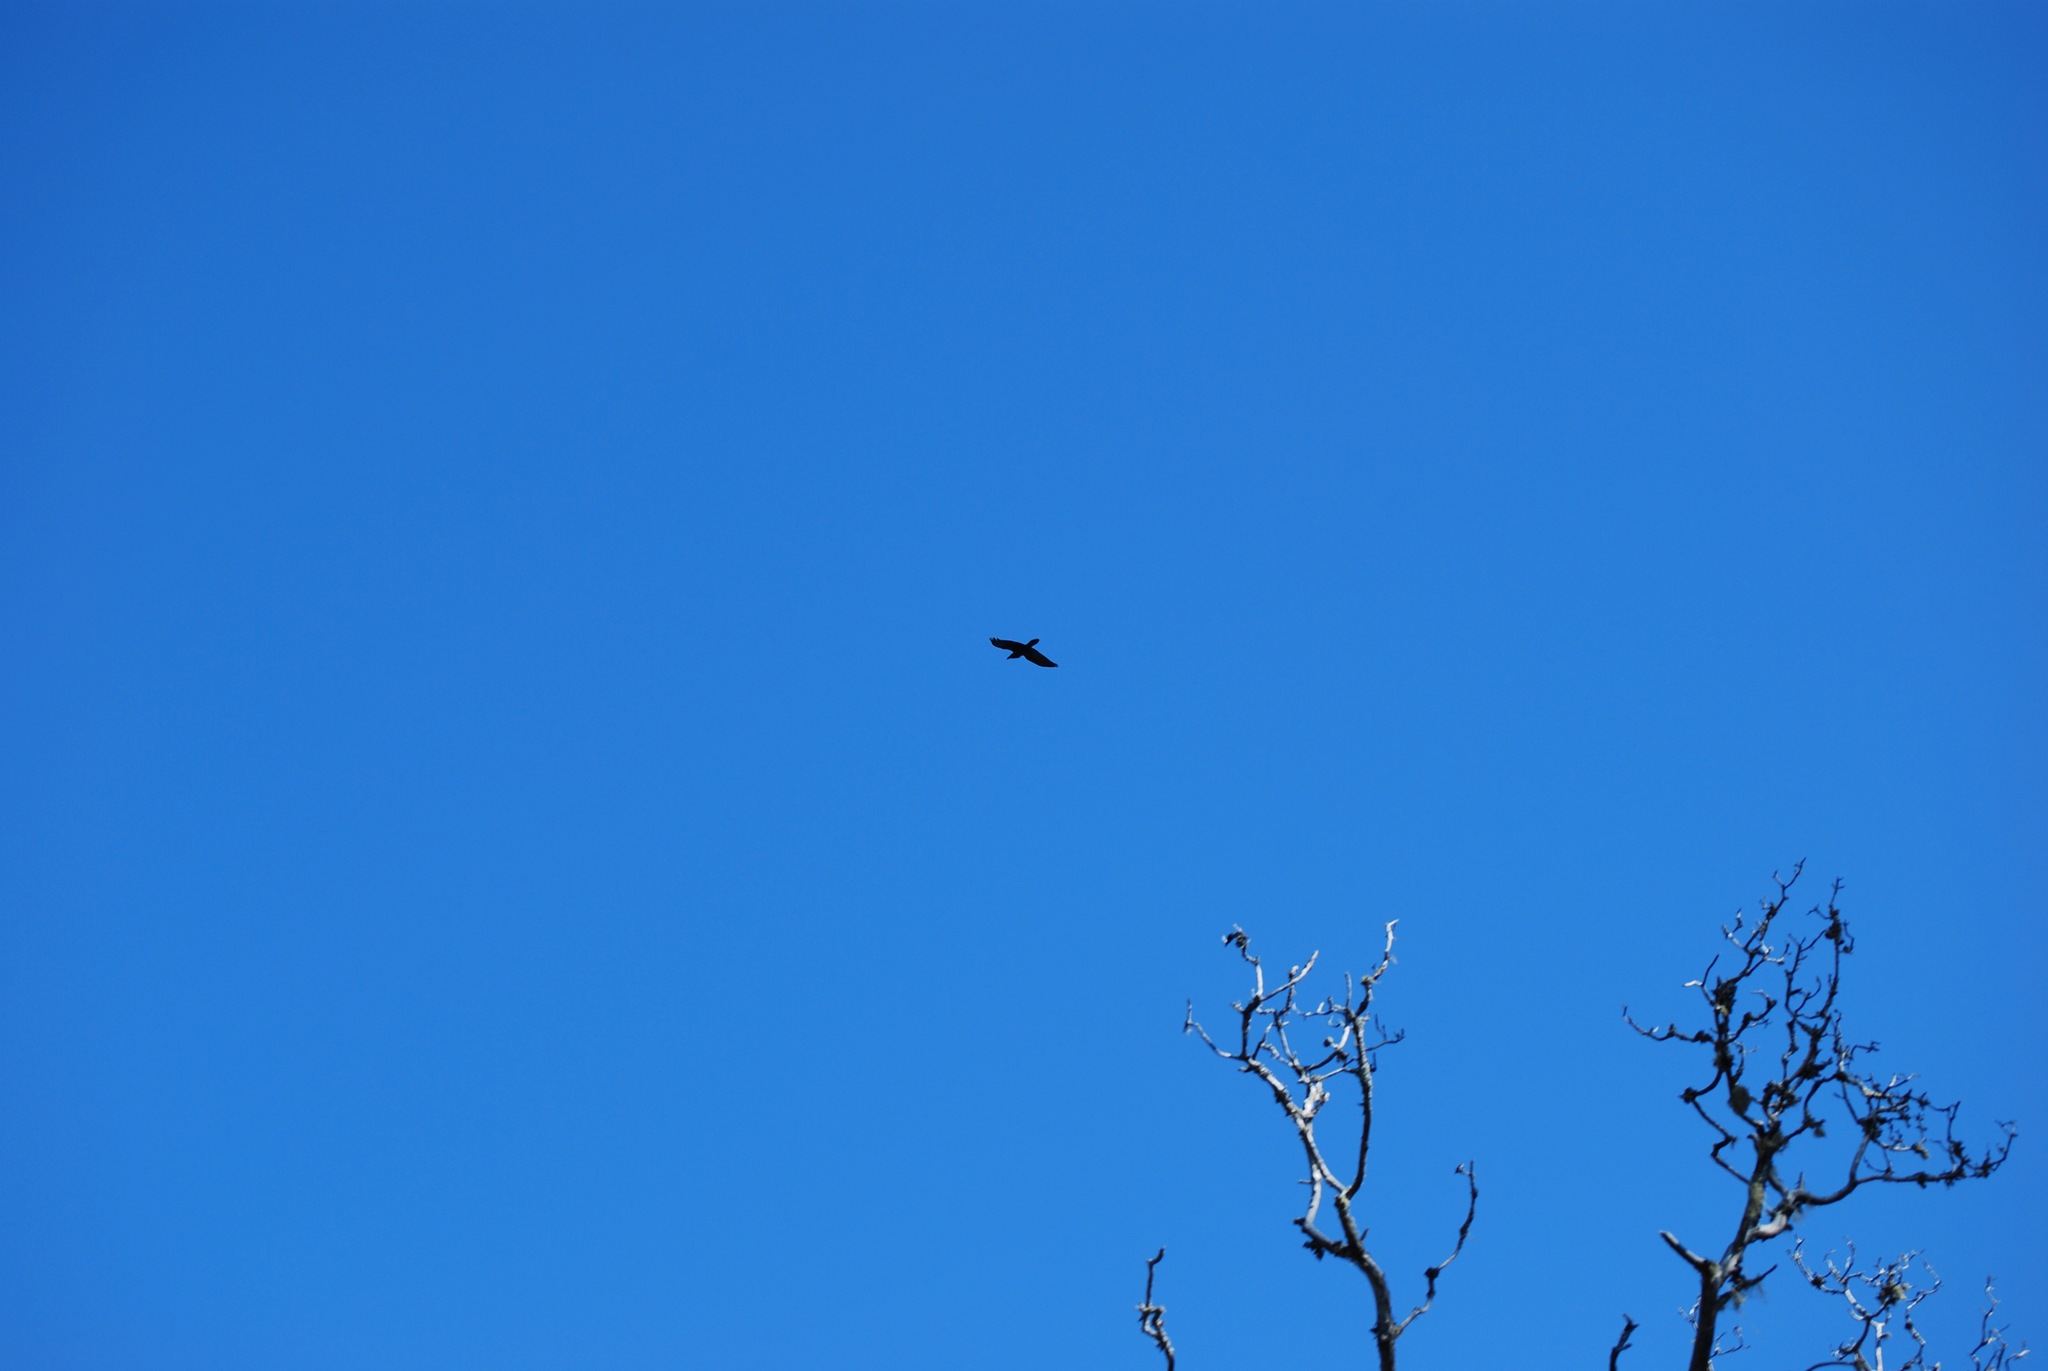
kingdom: Animalia
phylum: Chordata
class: Aves
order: Passeriformes
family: Corvidae
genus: Corvus
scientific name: Corvus corax
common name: Common raven
